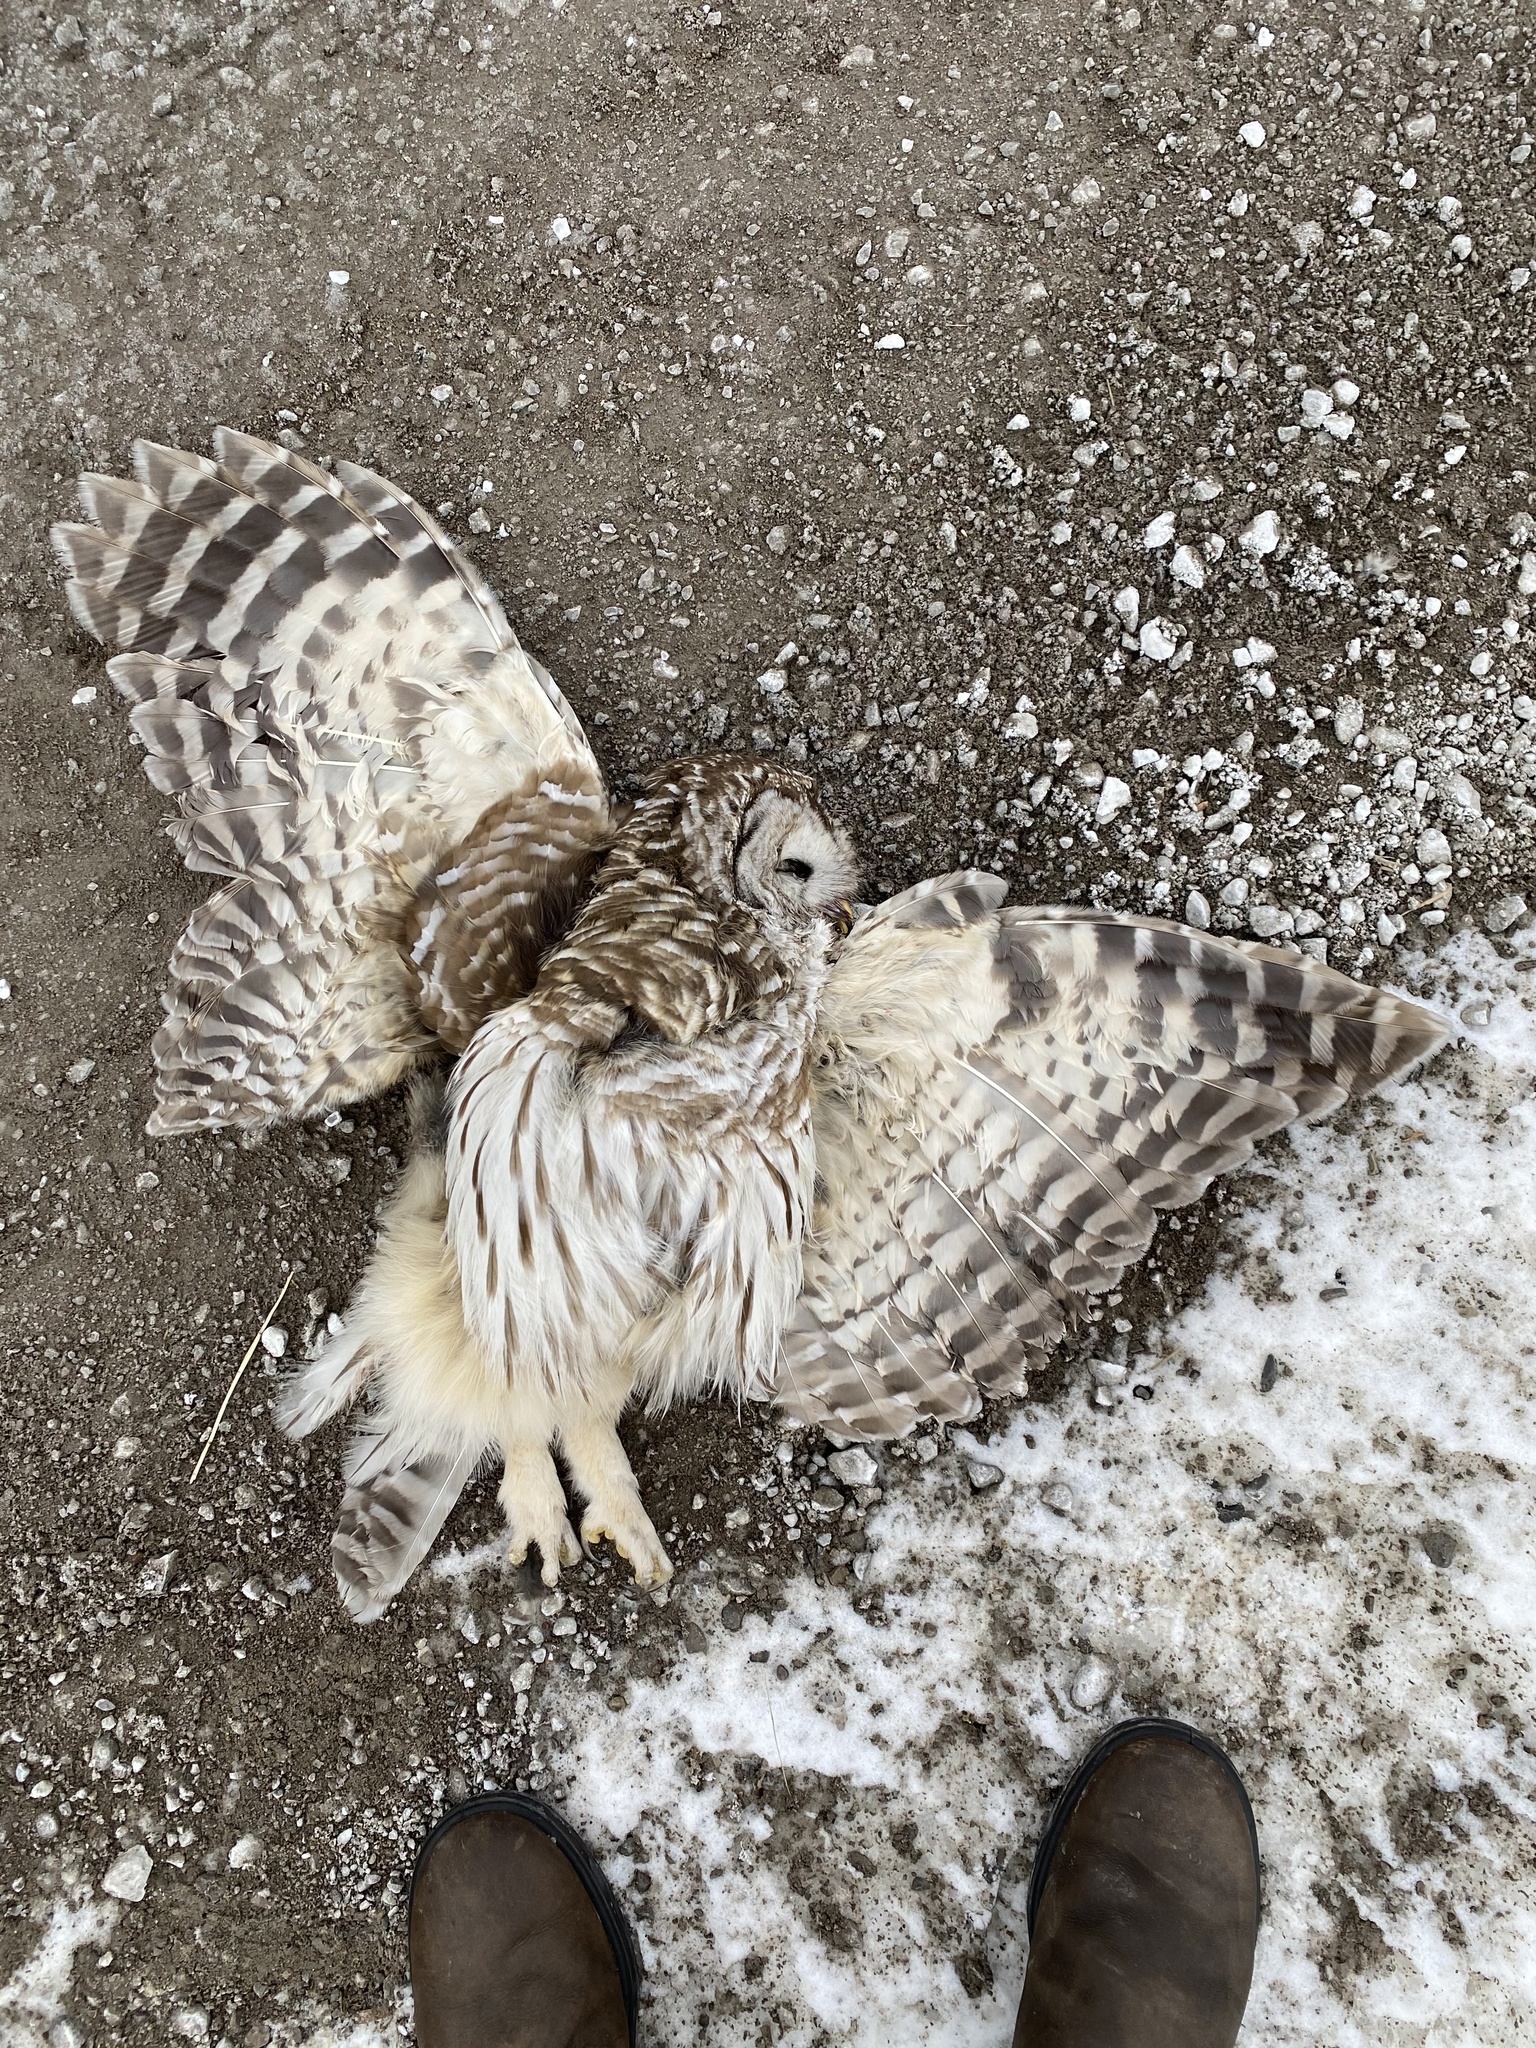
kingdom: Animalia
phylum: Chordata
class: Aves
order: Strigiformes
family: Strigidae
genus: Strix
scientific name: Strix varia
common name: Barred owl
